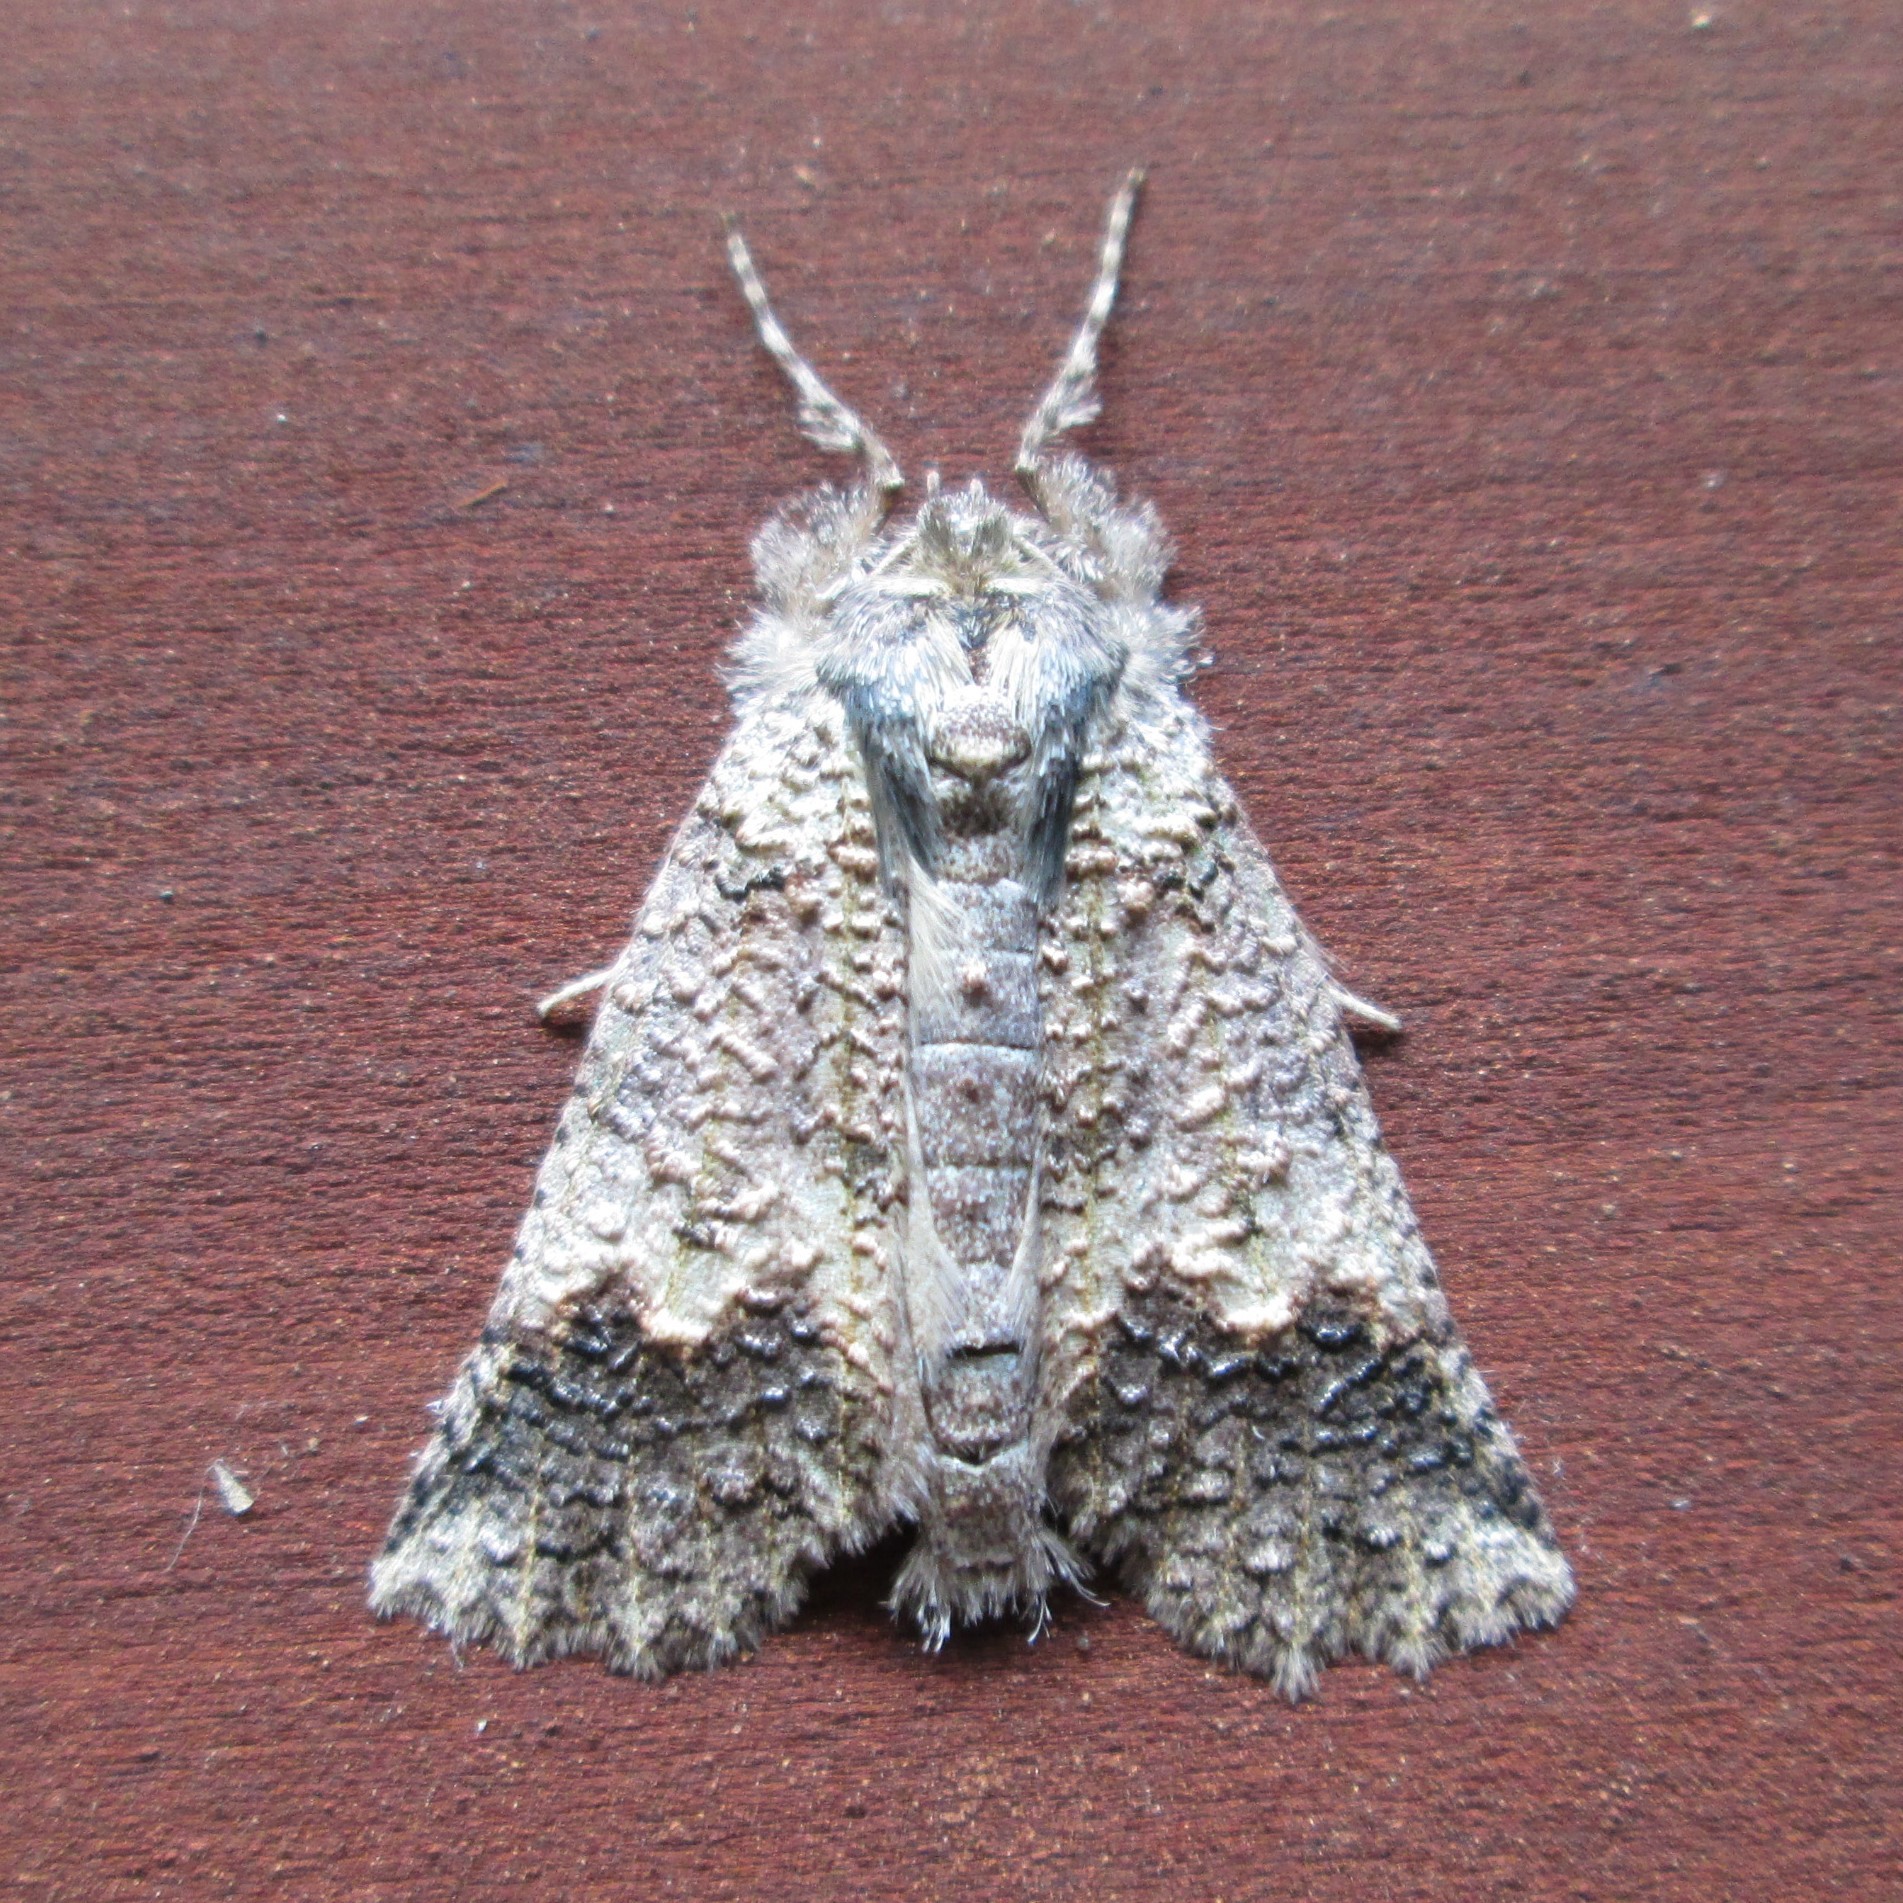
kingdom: Animalia
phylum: Arthropoda
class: Insecta
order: Lepidoptera
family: Geometridae
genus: Declana
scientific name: Declana floccosa
